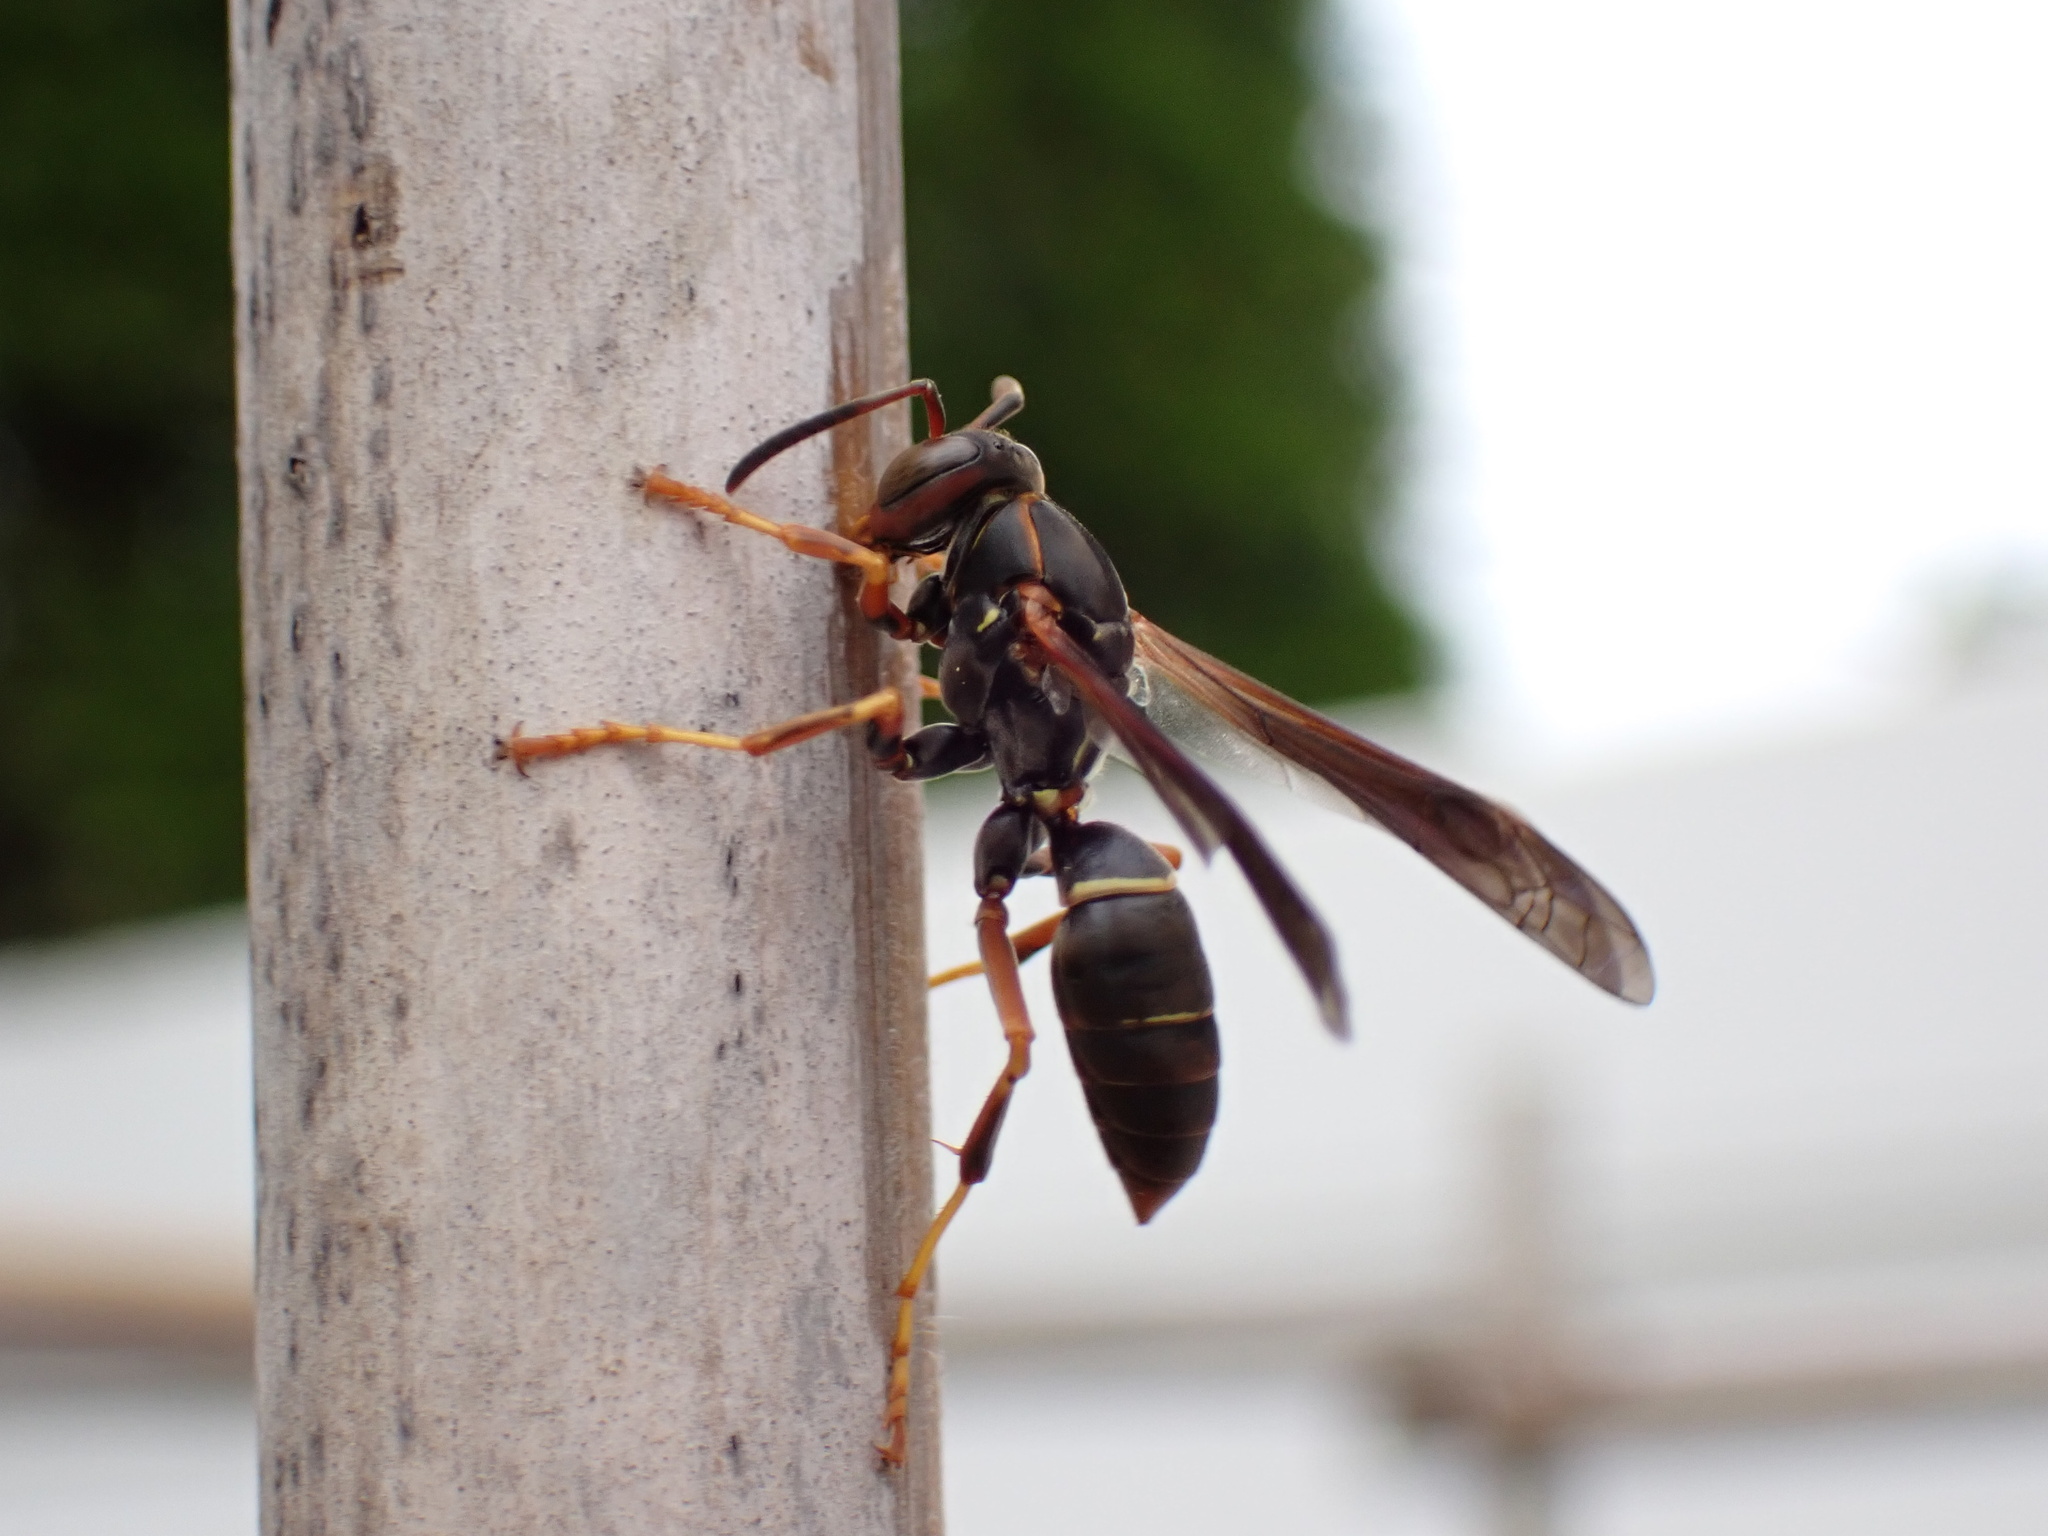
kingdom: Animalia
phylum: Arthropoda
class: Insecta
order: Hymenoptera
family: Eumenidae
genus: Polistes
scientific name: Polistes fuscatus
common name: Dark paper wasp
